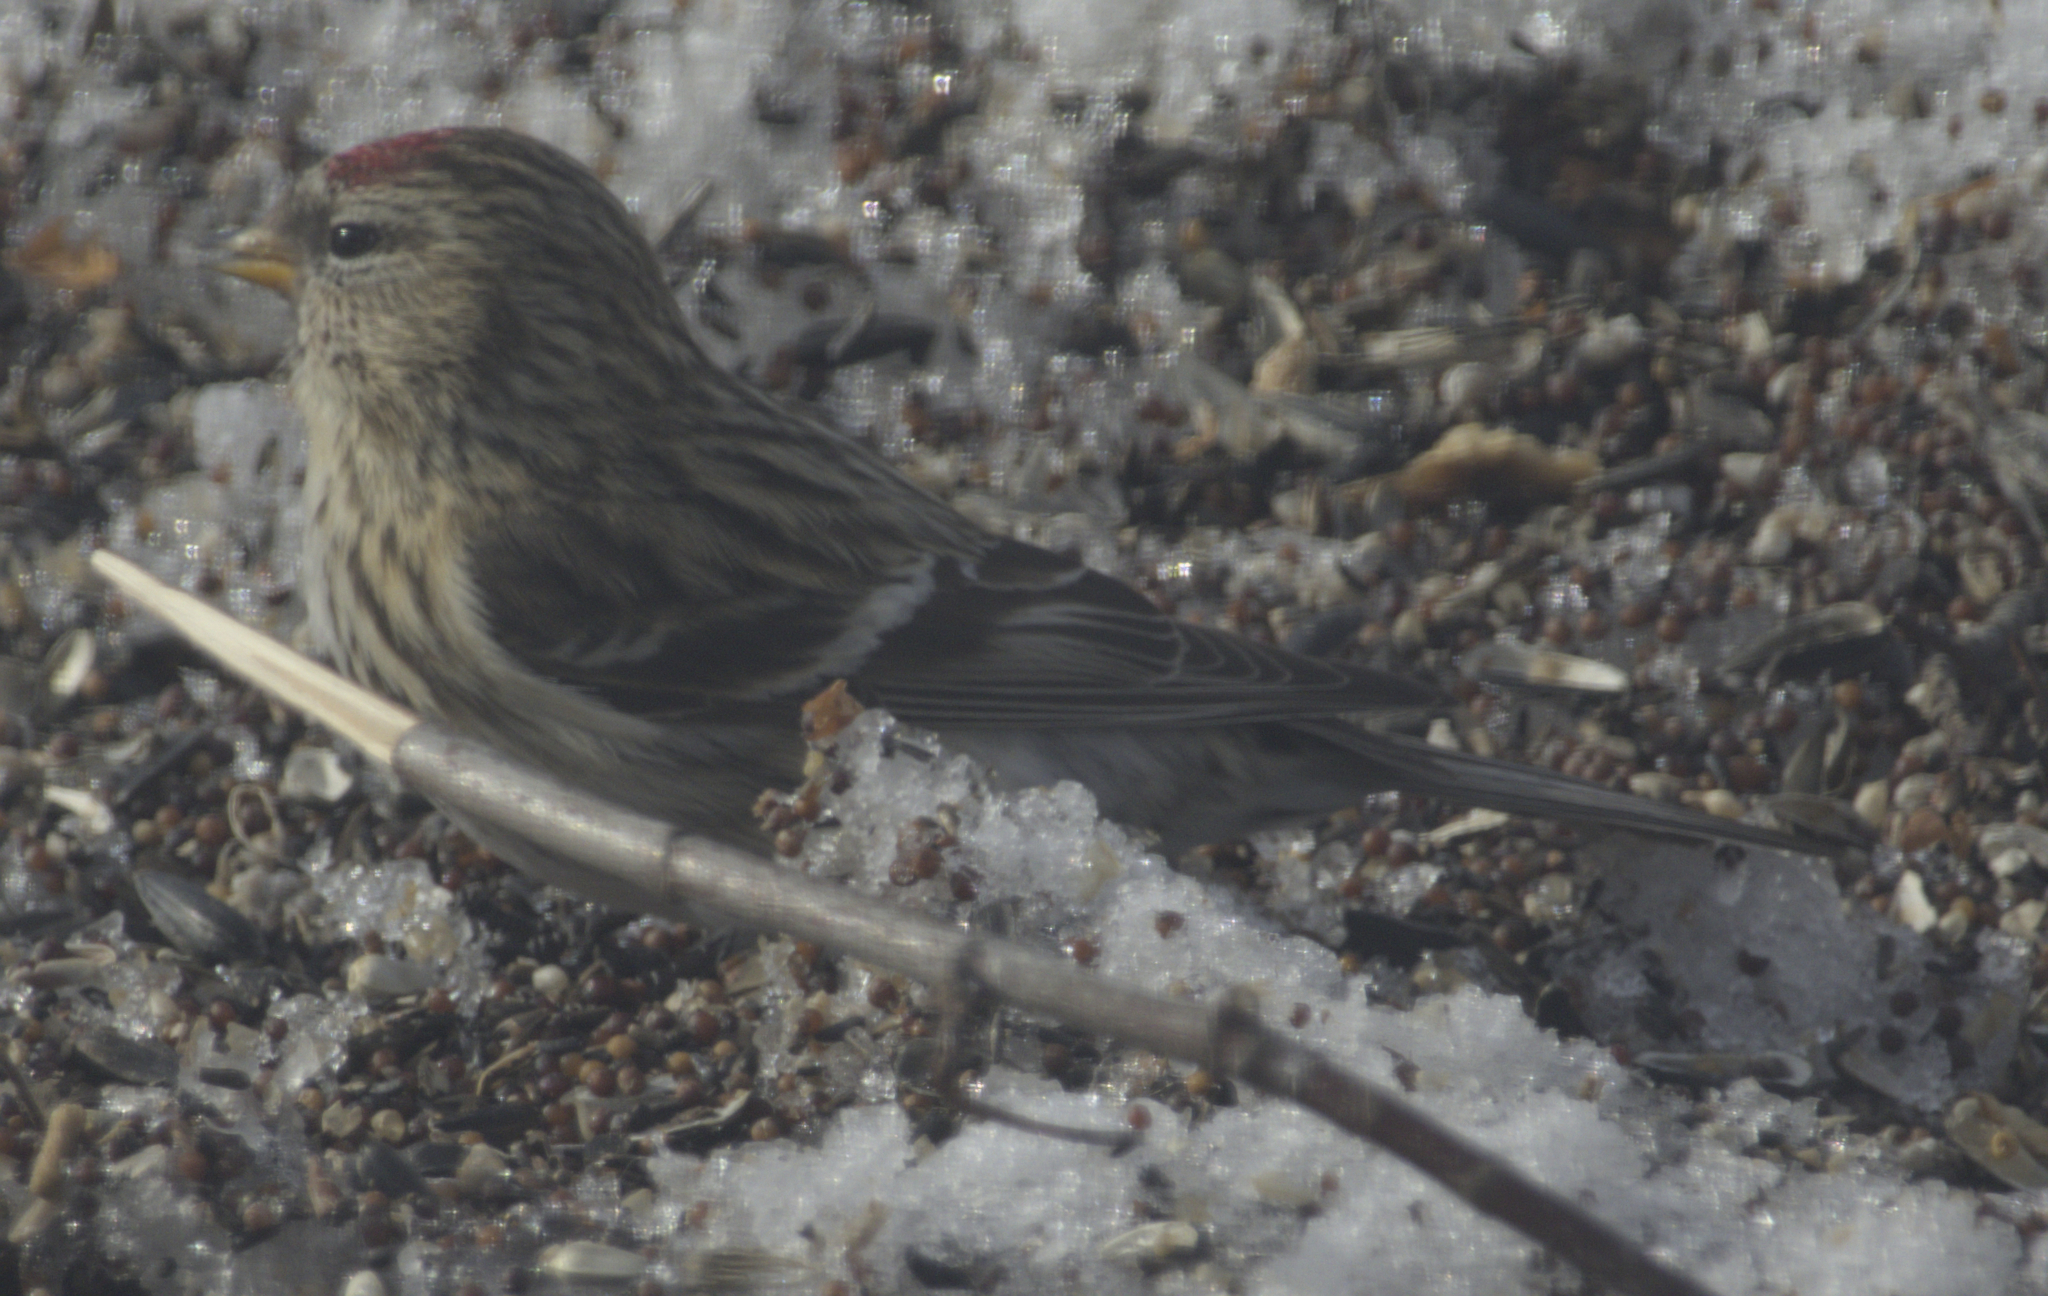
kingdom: Animalia
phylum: Chordata
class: Aves
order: Passeriformes
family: Fringillidae
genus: Acanthis
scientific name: Acanthis flammea
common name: Common redpoll
